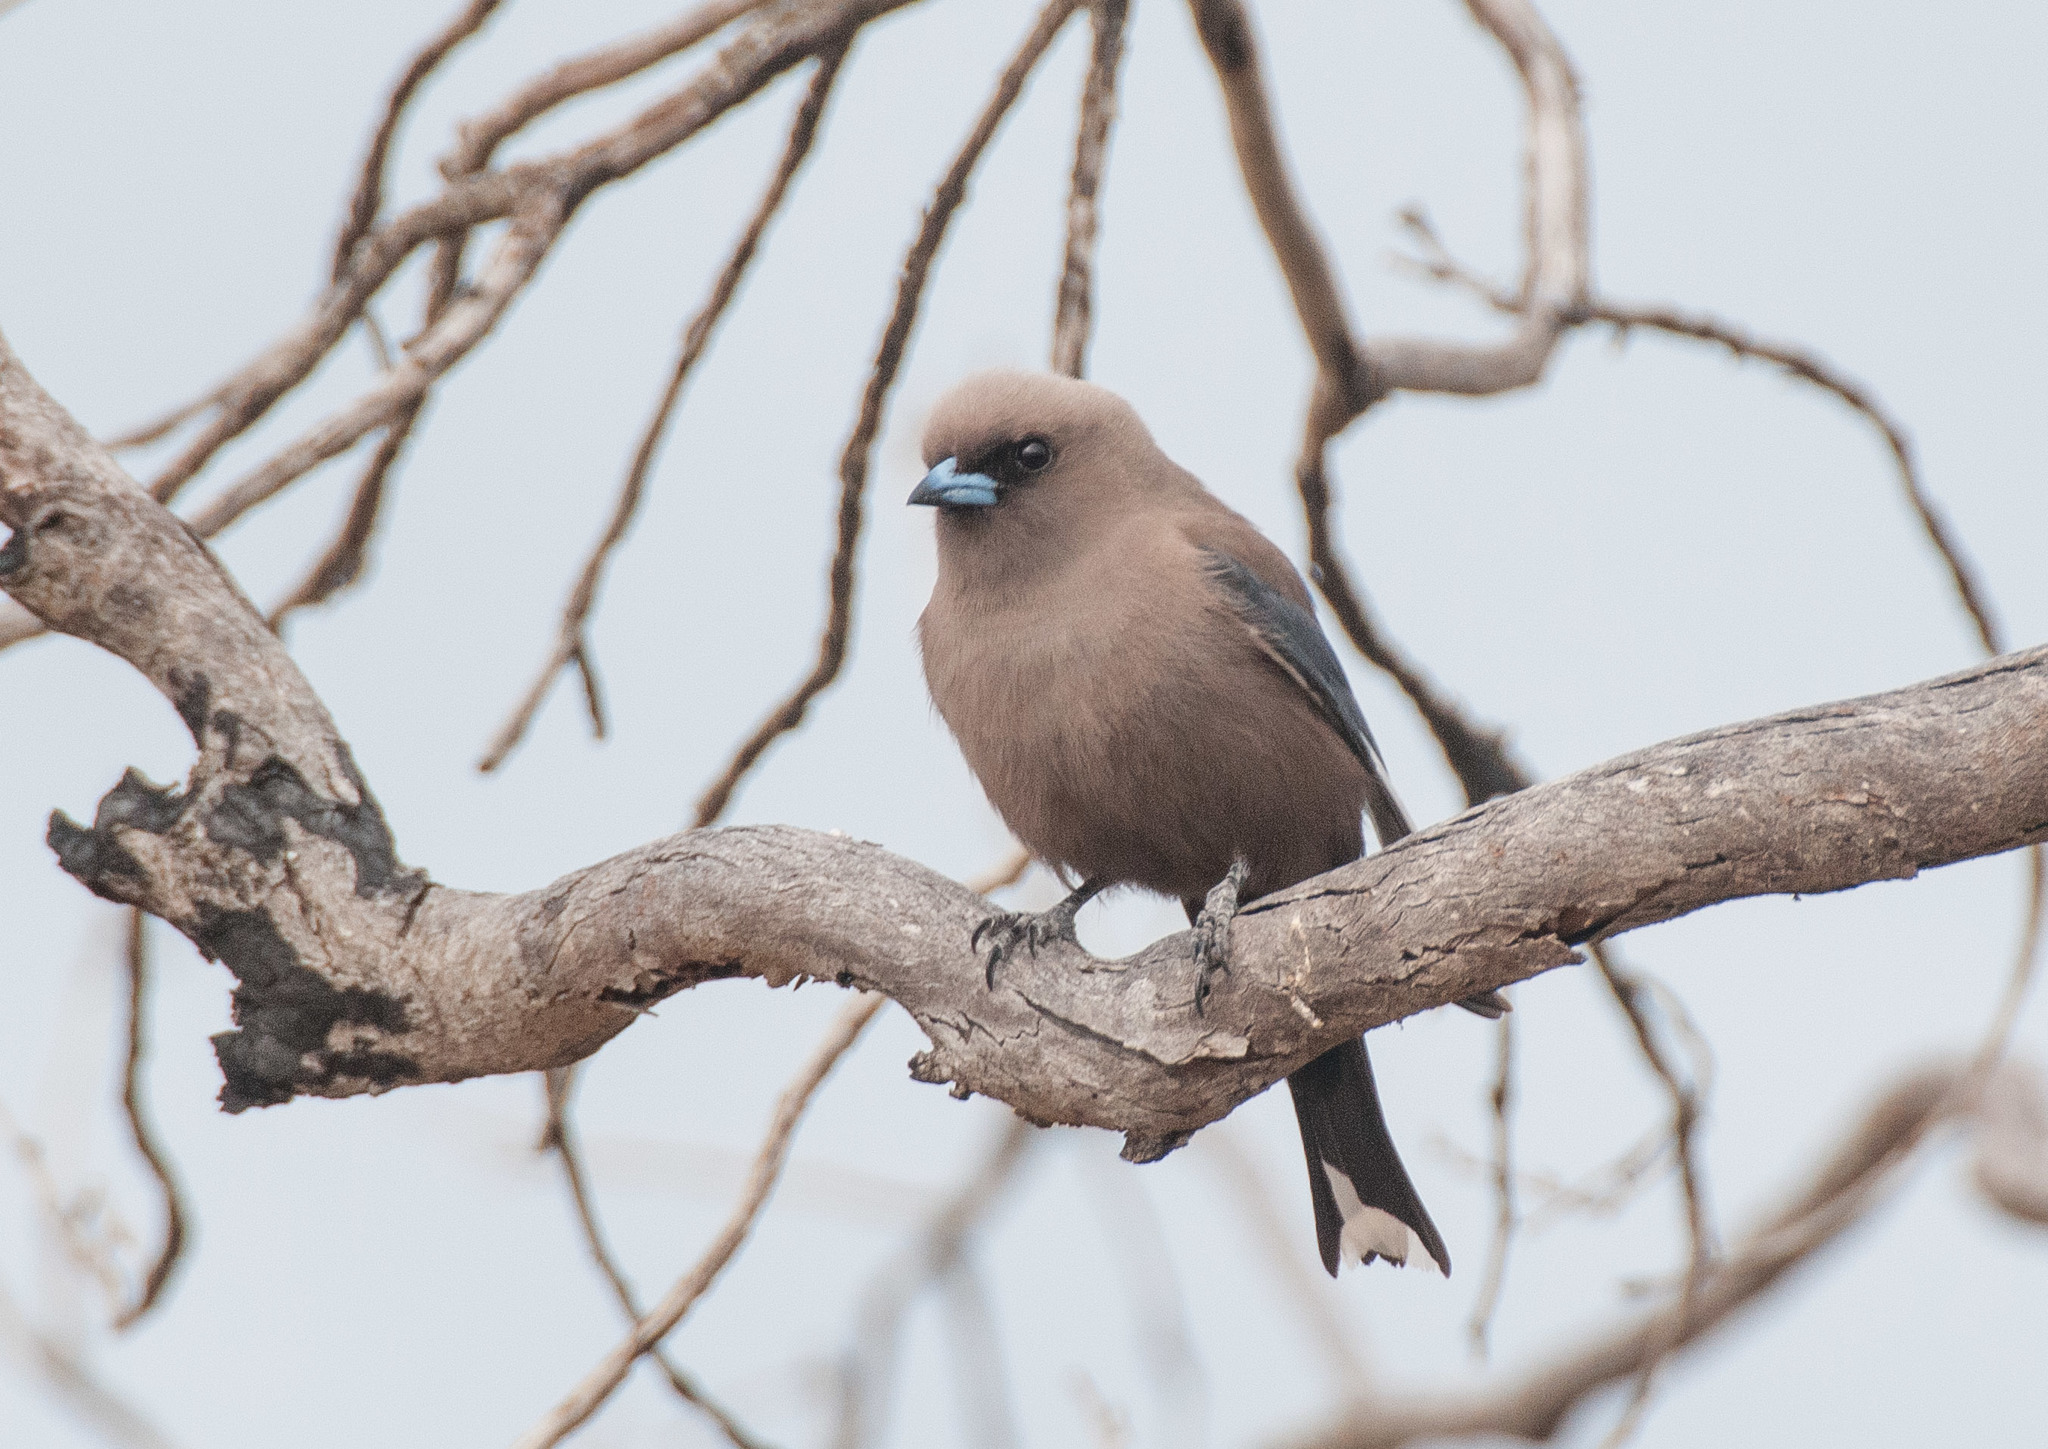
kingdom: Animalia
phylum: Chordata
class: Aves
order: Passeriformes
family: Artamidae
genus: Artamus
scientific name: Artamus cyanopterus
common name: Dusky woodswallow
